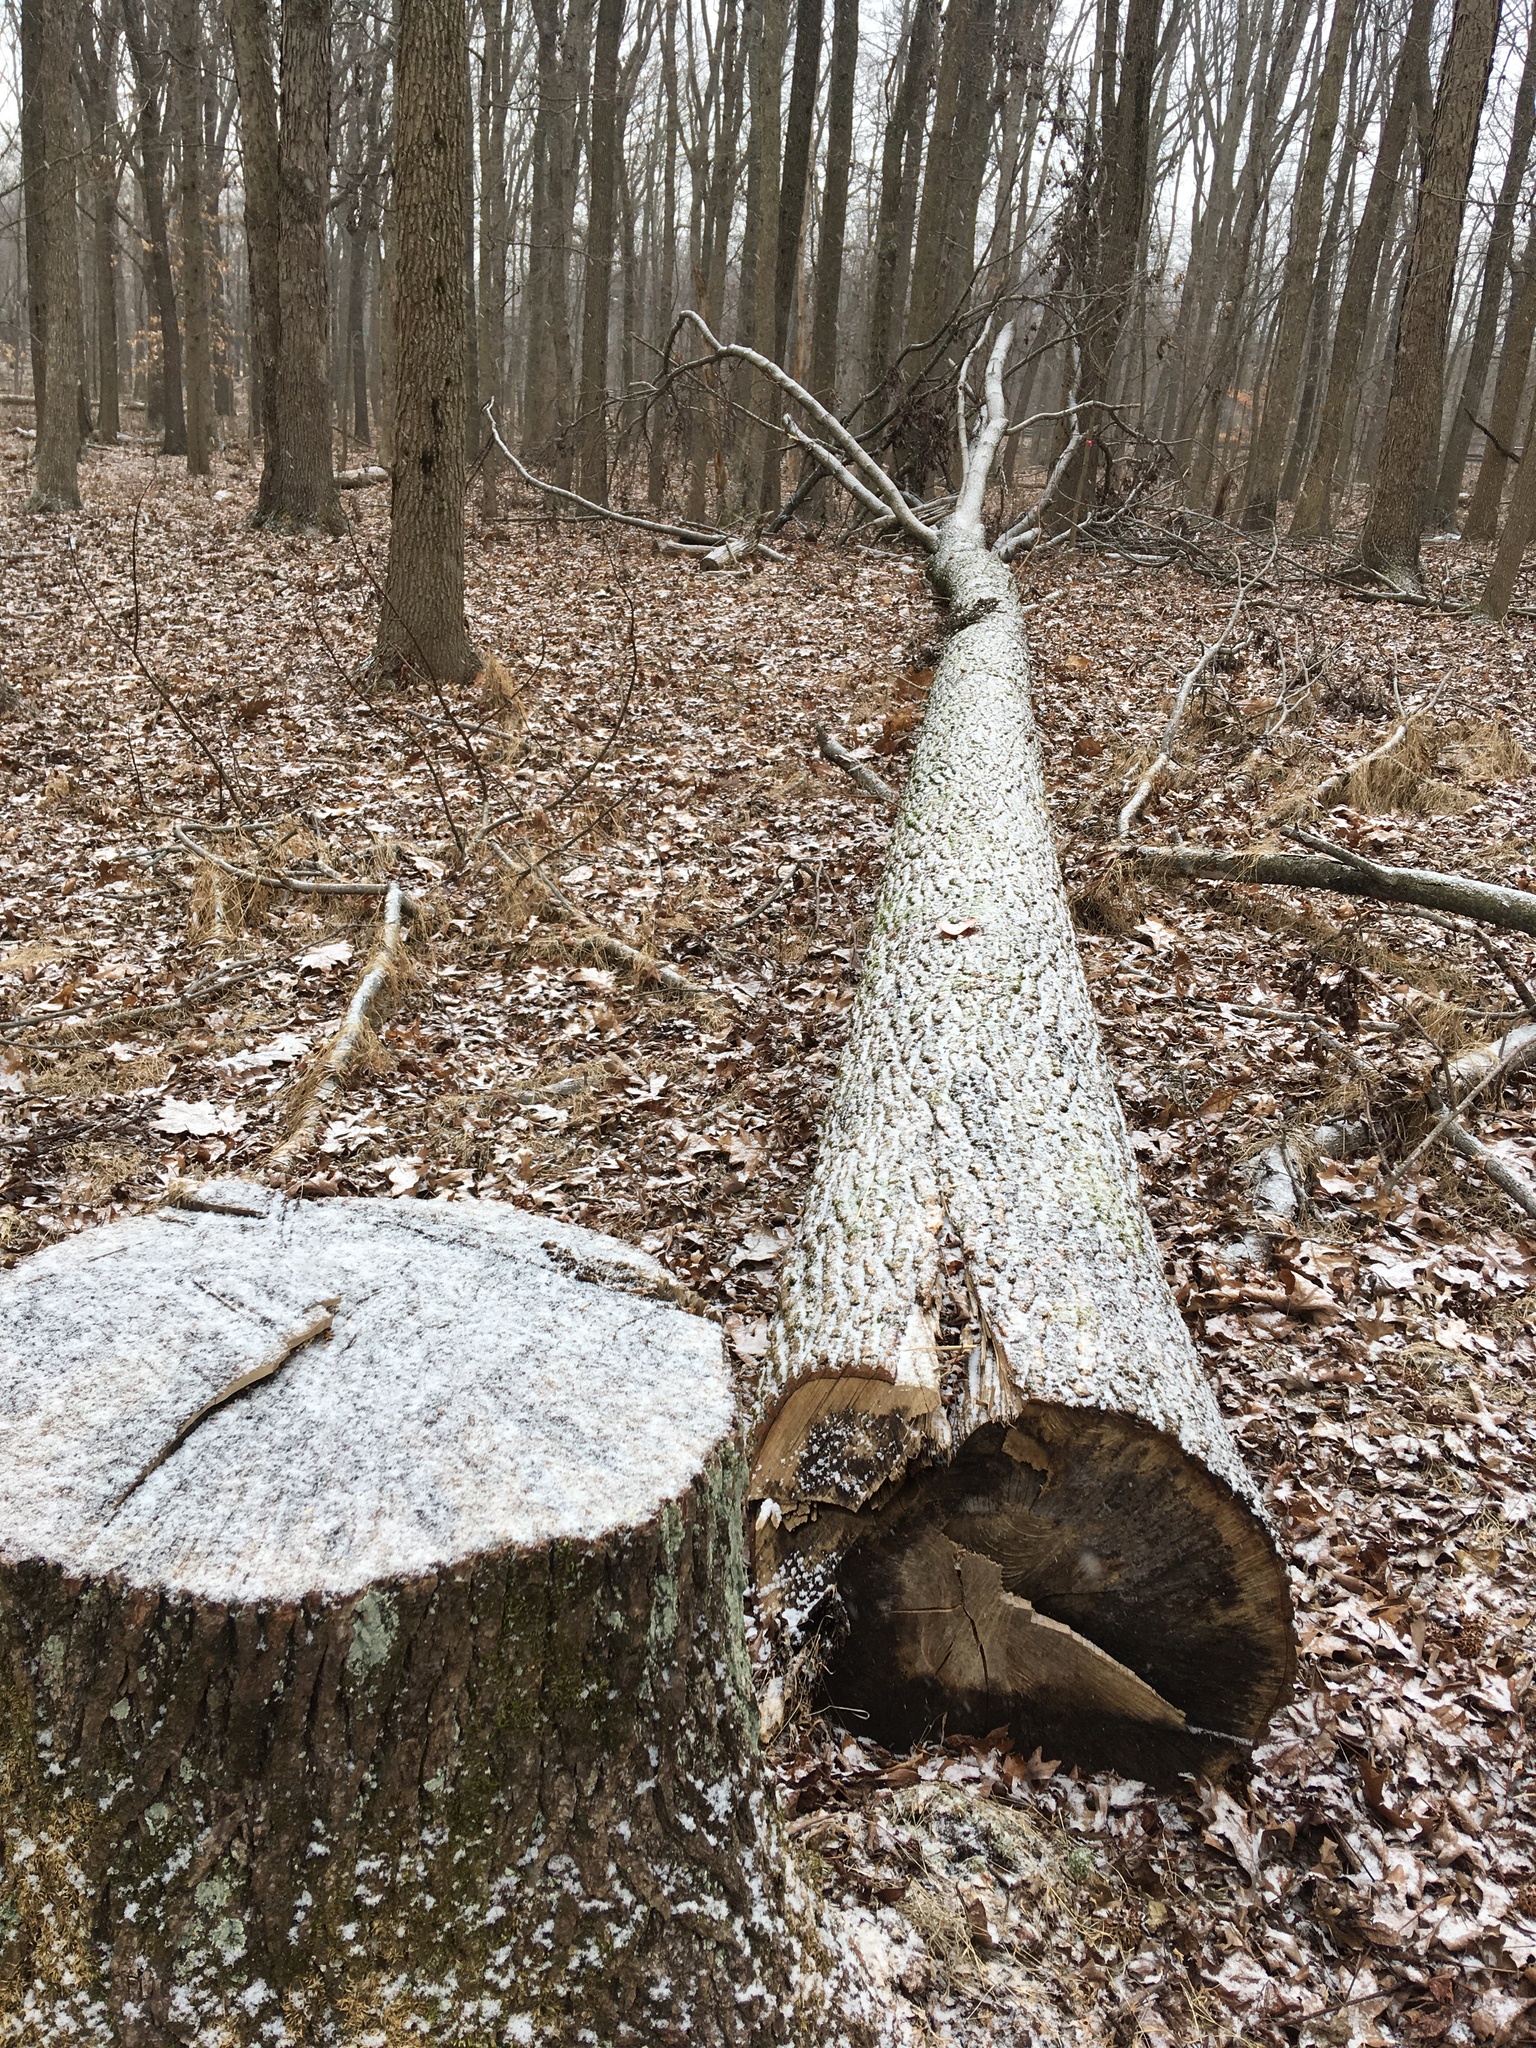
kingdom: Plantae
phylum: Tracheophyta
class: Magnoliopsida
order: Saxifragales
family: Altingiaceae
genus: Liquidambar
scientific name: Liquidambar styraciflua
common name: Sweet gum
